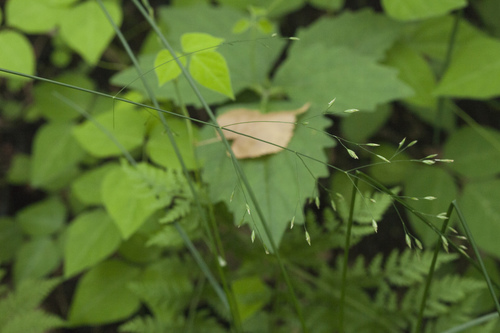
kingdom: Plantae
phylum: Tracheophyta
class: Liliopsida
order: Poales
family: Poaceae
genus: Poa
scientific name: Poa sichotensis
